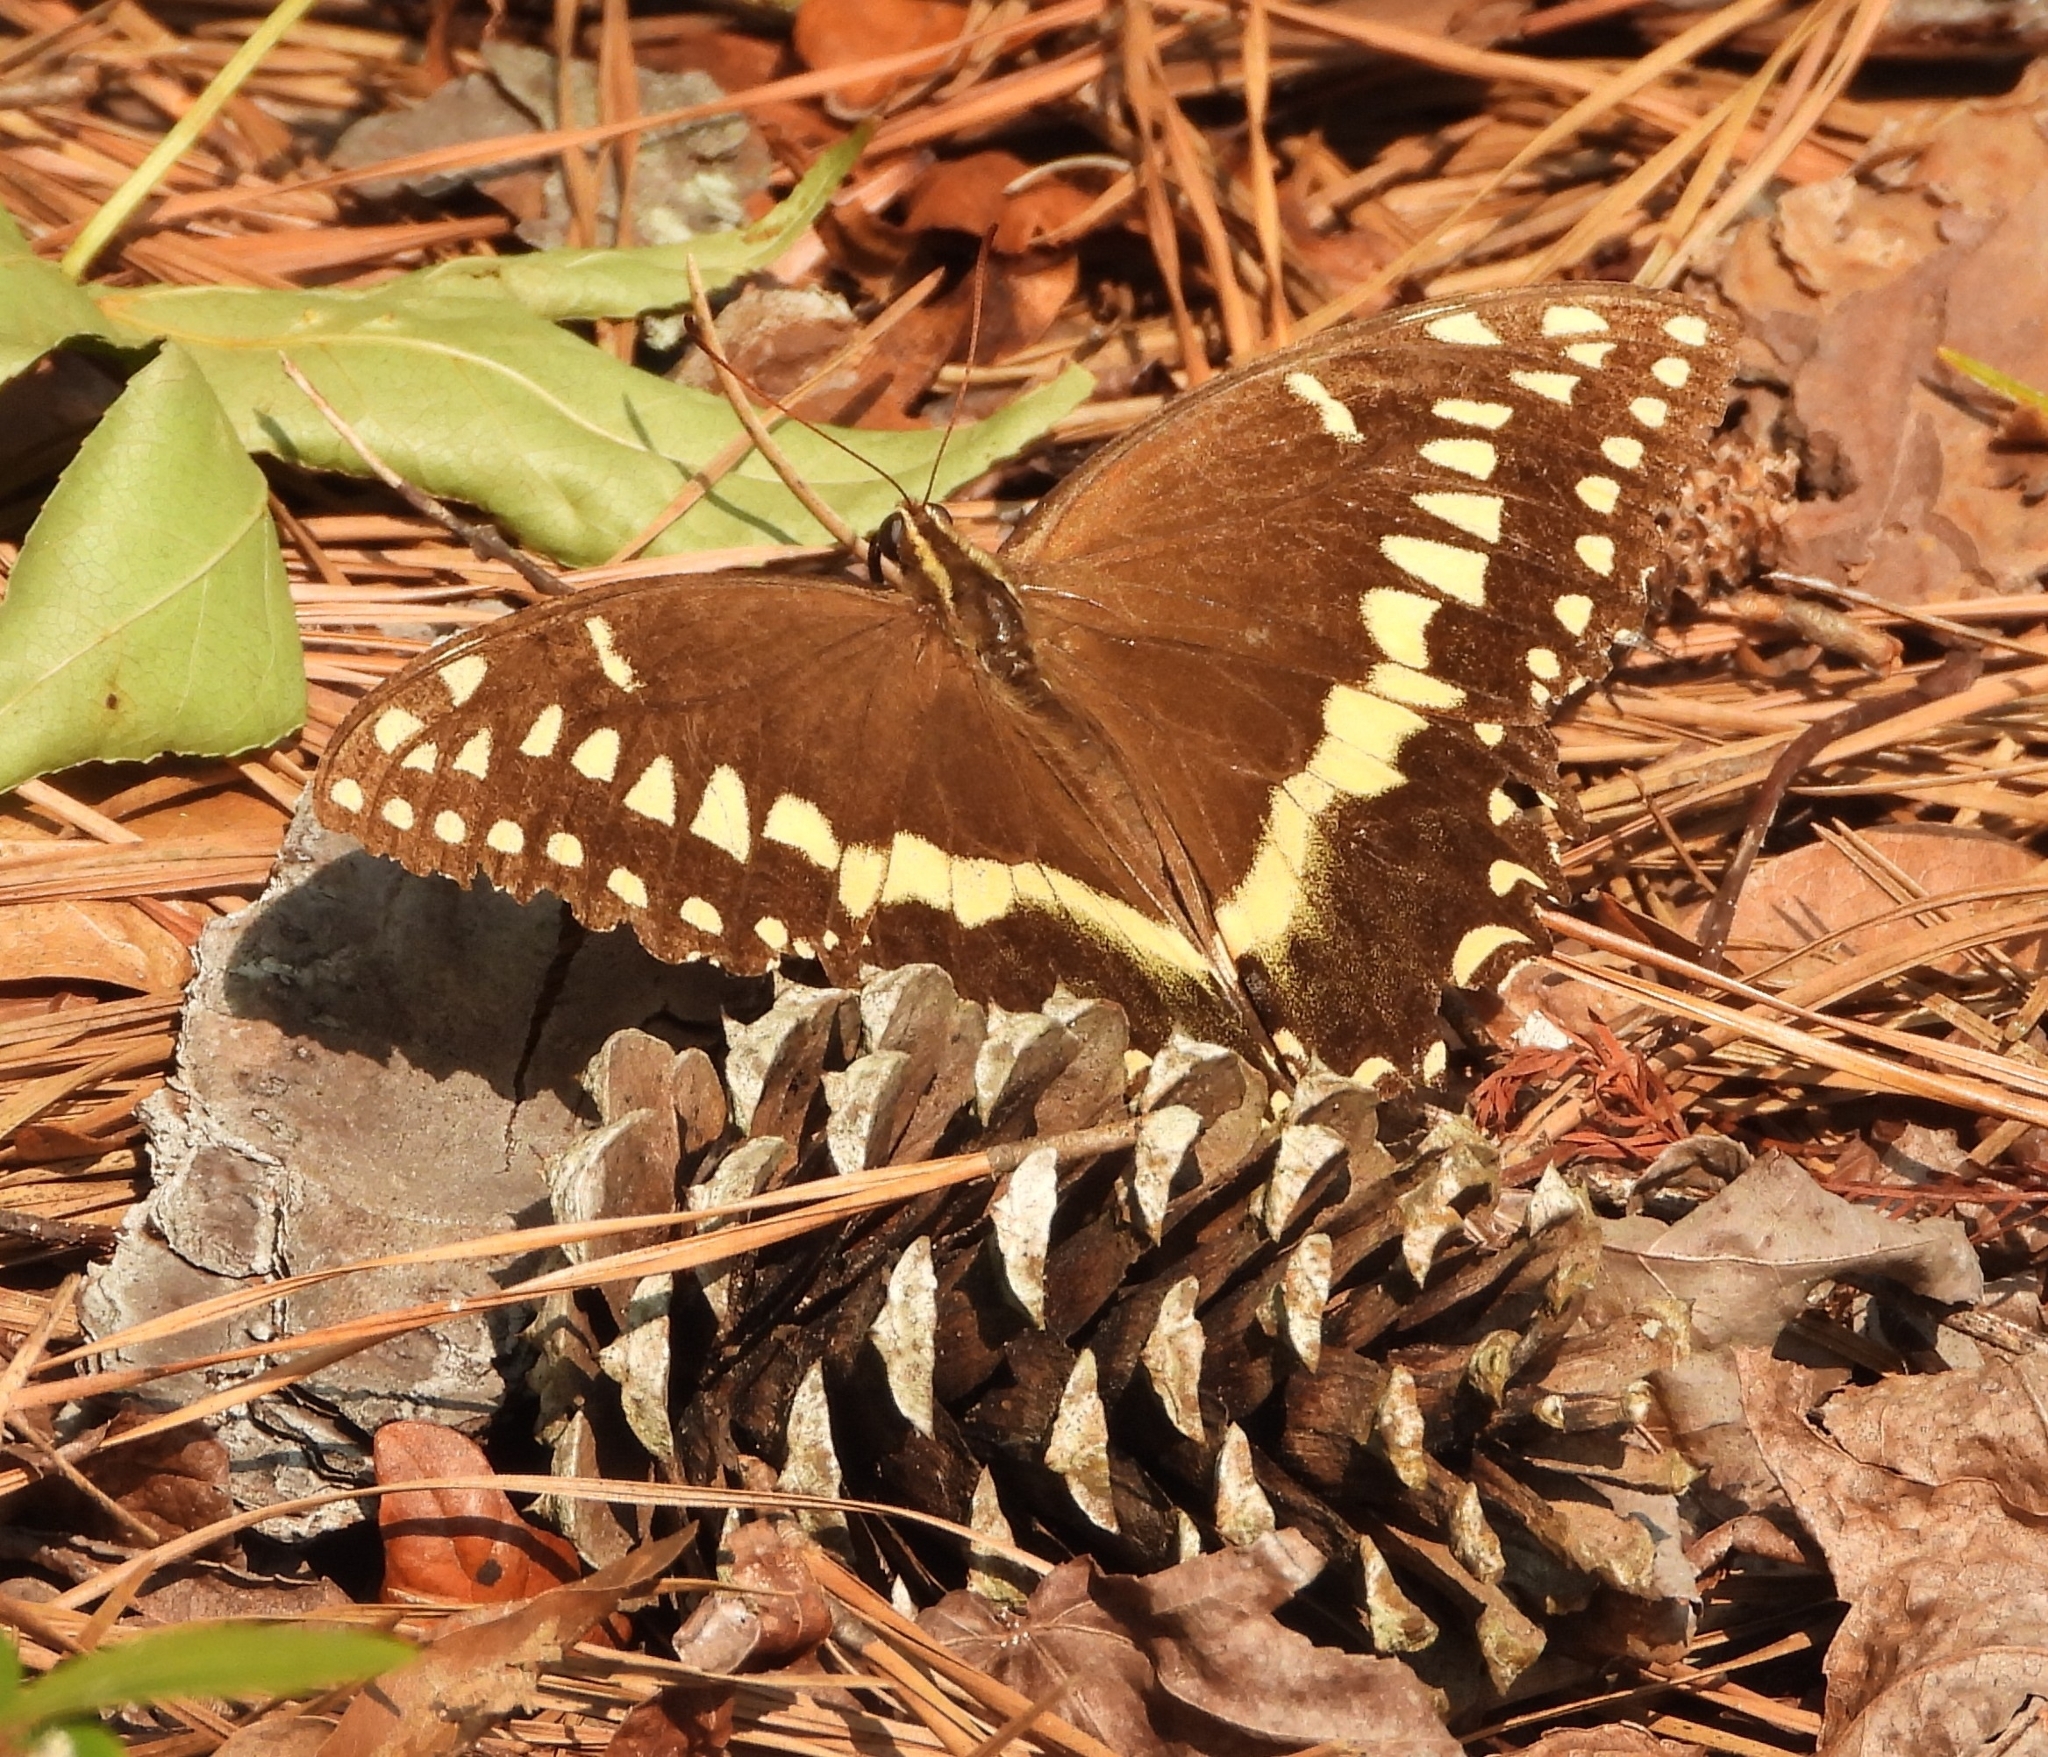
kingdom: Animalia
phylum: Arthropoda
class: Insecta
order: Lepidoptera
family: Papilionidae
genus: Papilio
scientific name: Papilio palamedes
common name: Palamedes swallowtail
